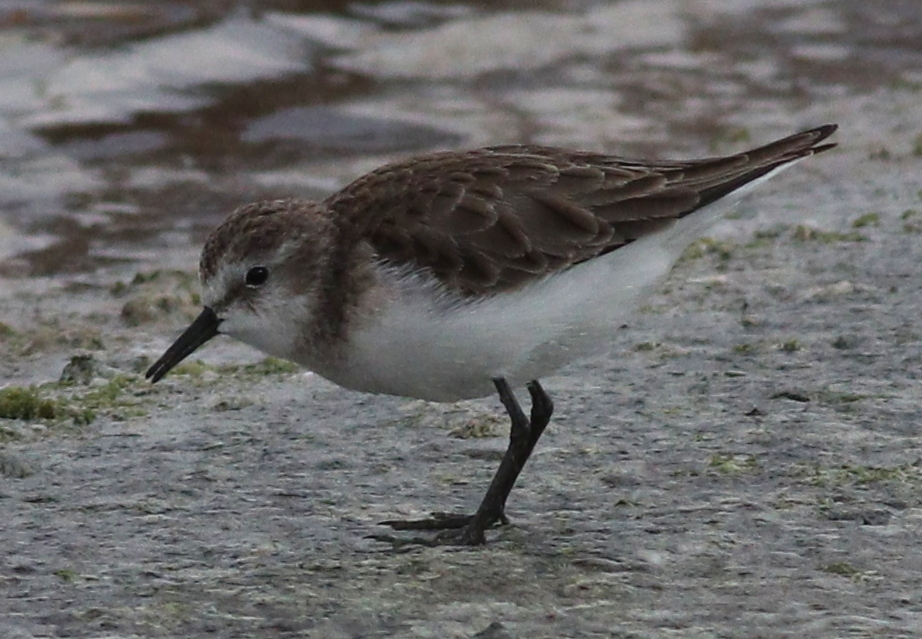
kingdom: Animalia
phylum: Chordata
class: Aves
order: Charadriiformes
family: Scolopacidae
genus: Calidris
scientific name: Calidris minuta
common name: Little stint
